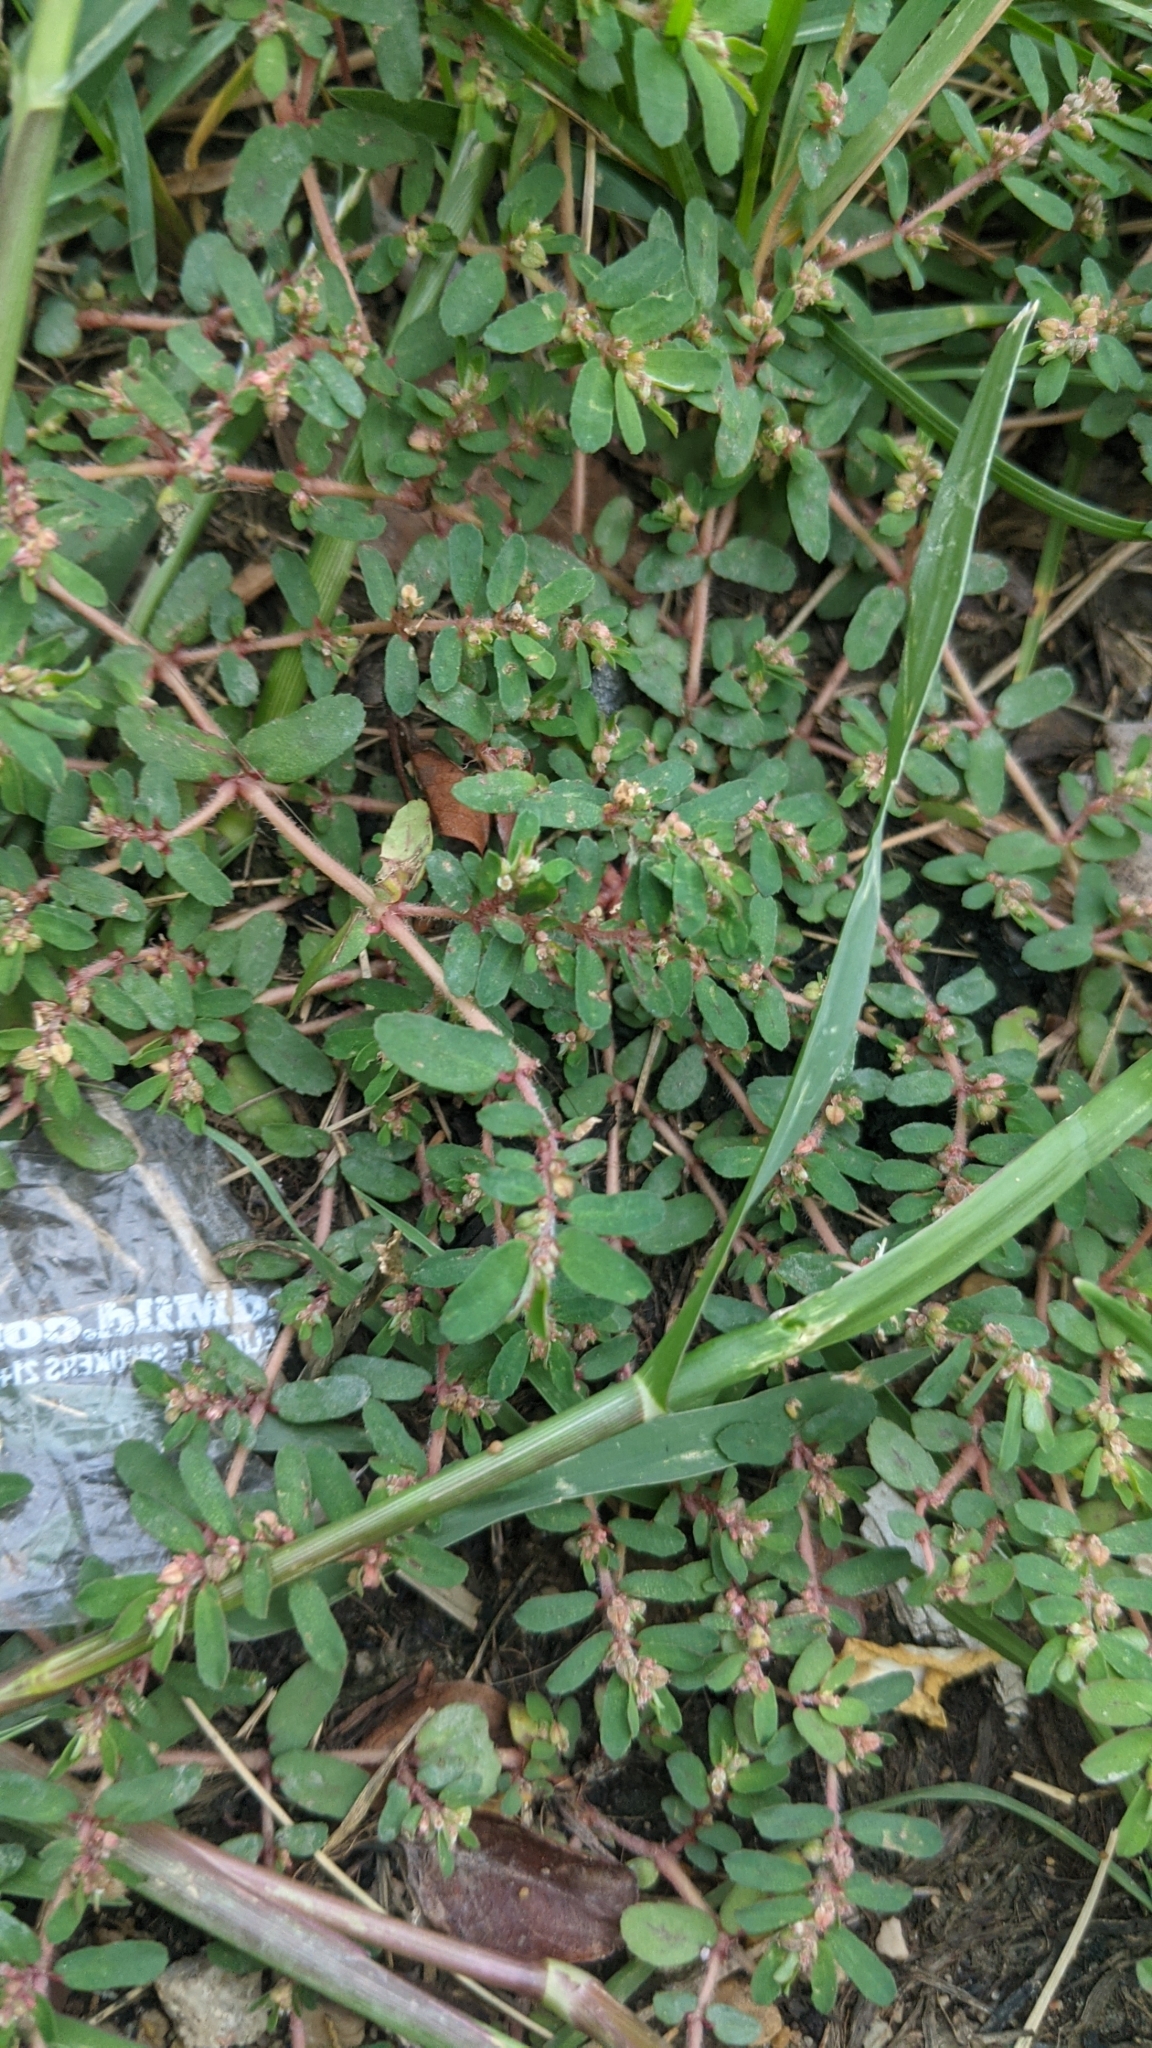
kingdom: Plantae
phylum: Tracheophyta
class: Magnoliopsida
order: Malpighiales
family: Euphorbiaceae
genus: Euphorbia
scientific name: Euphorbia maculata
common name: Spotted spurge
